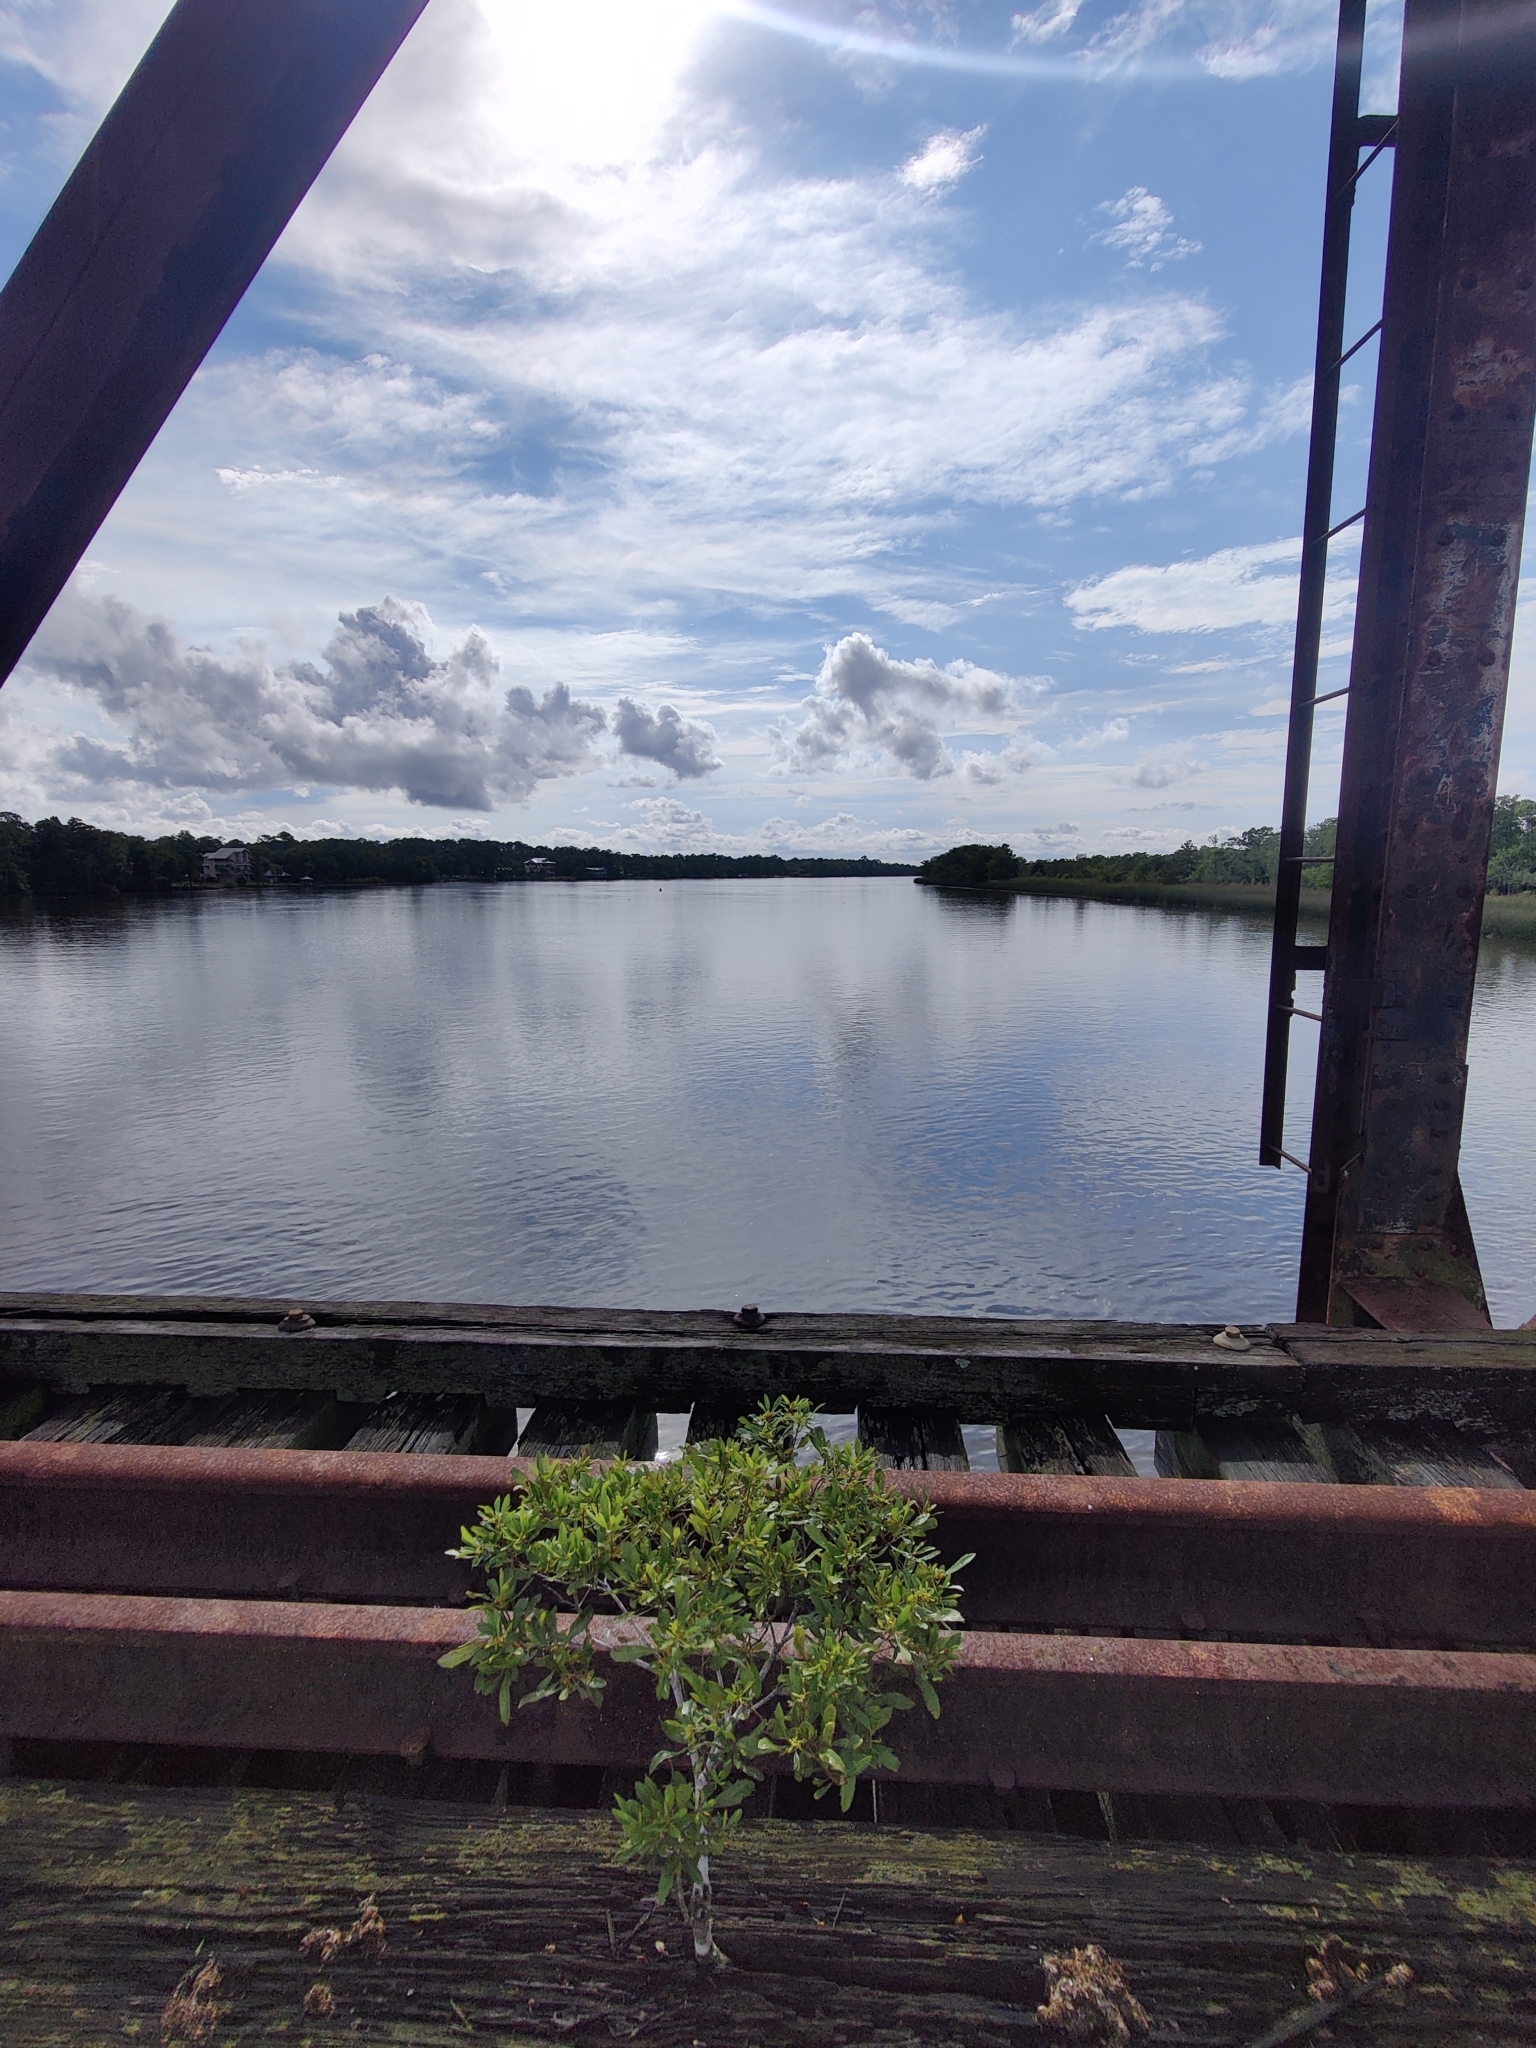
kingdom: Plantae
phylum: Tracheophyta
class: Magnoliopsida
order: Fagales
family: Myricaceae
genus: Morella
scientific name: Morella cerifera
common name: Wax myrtle
